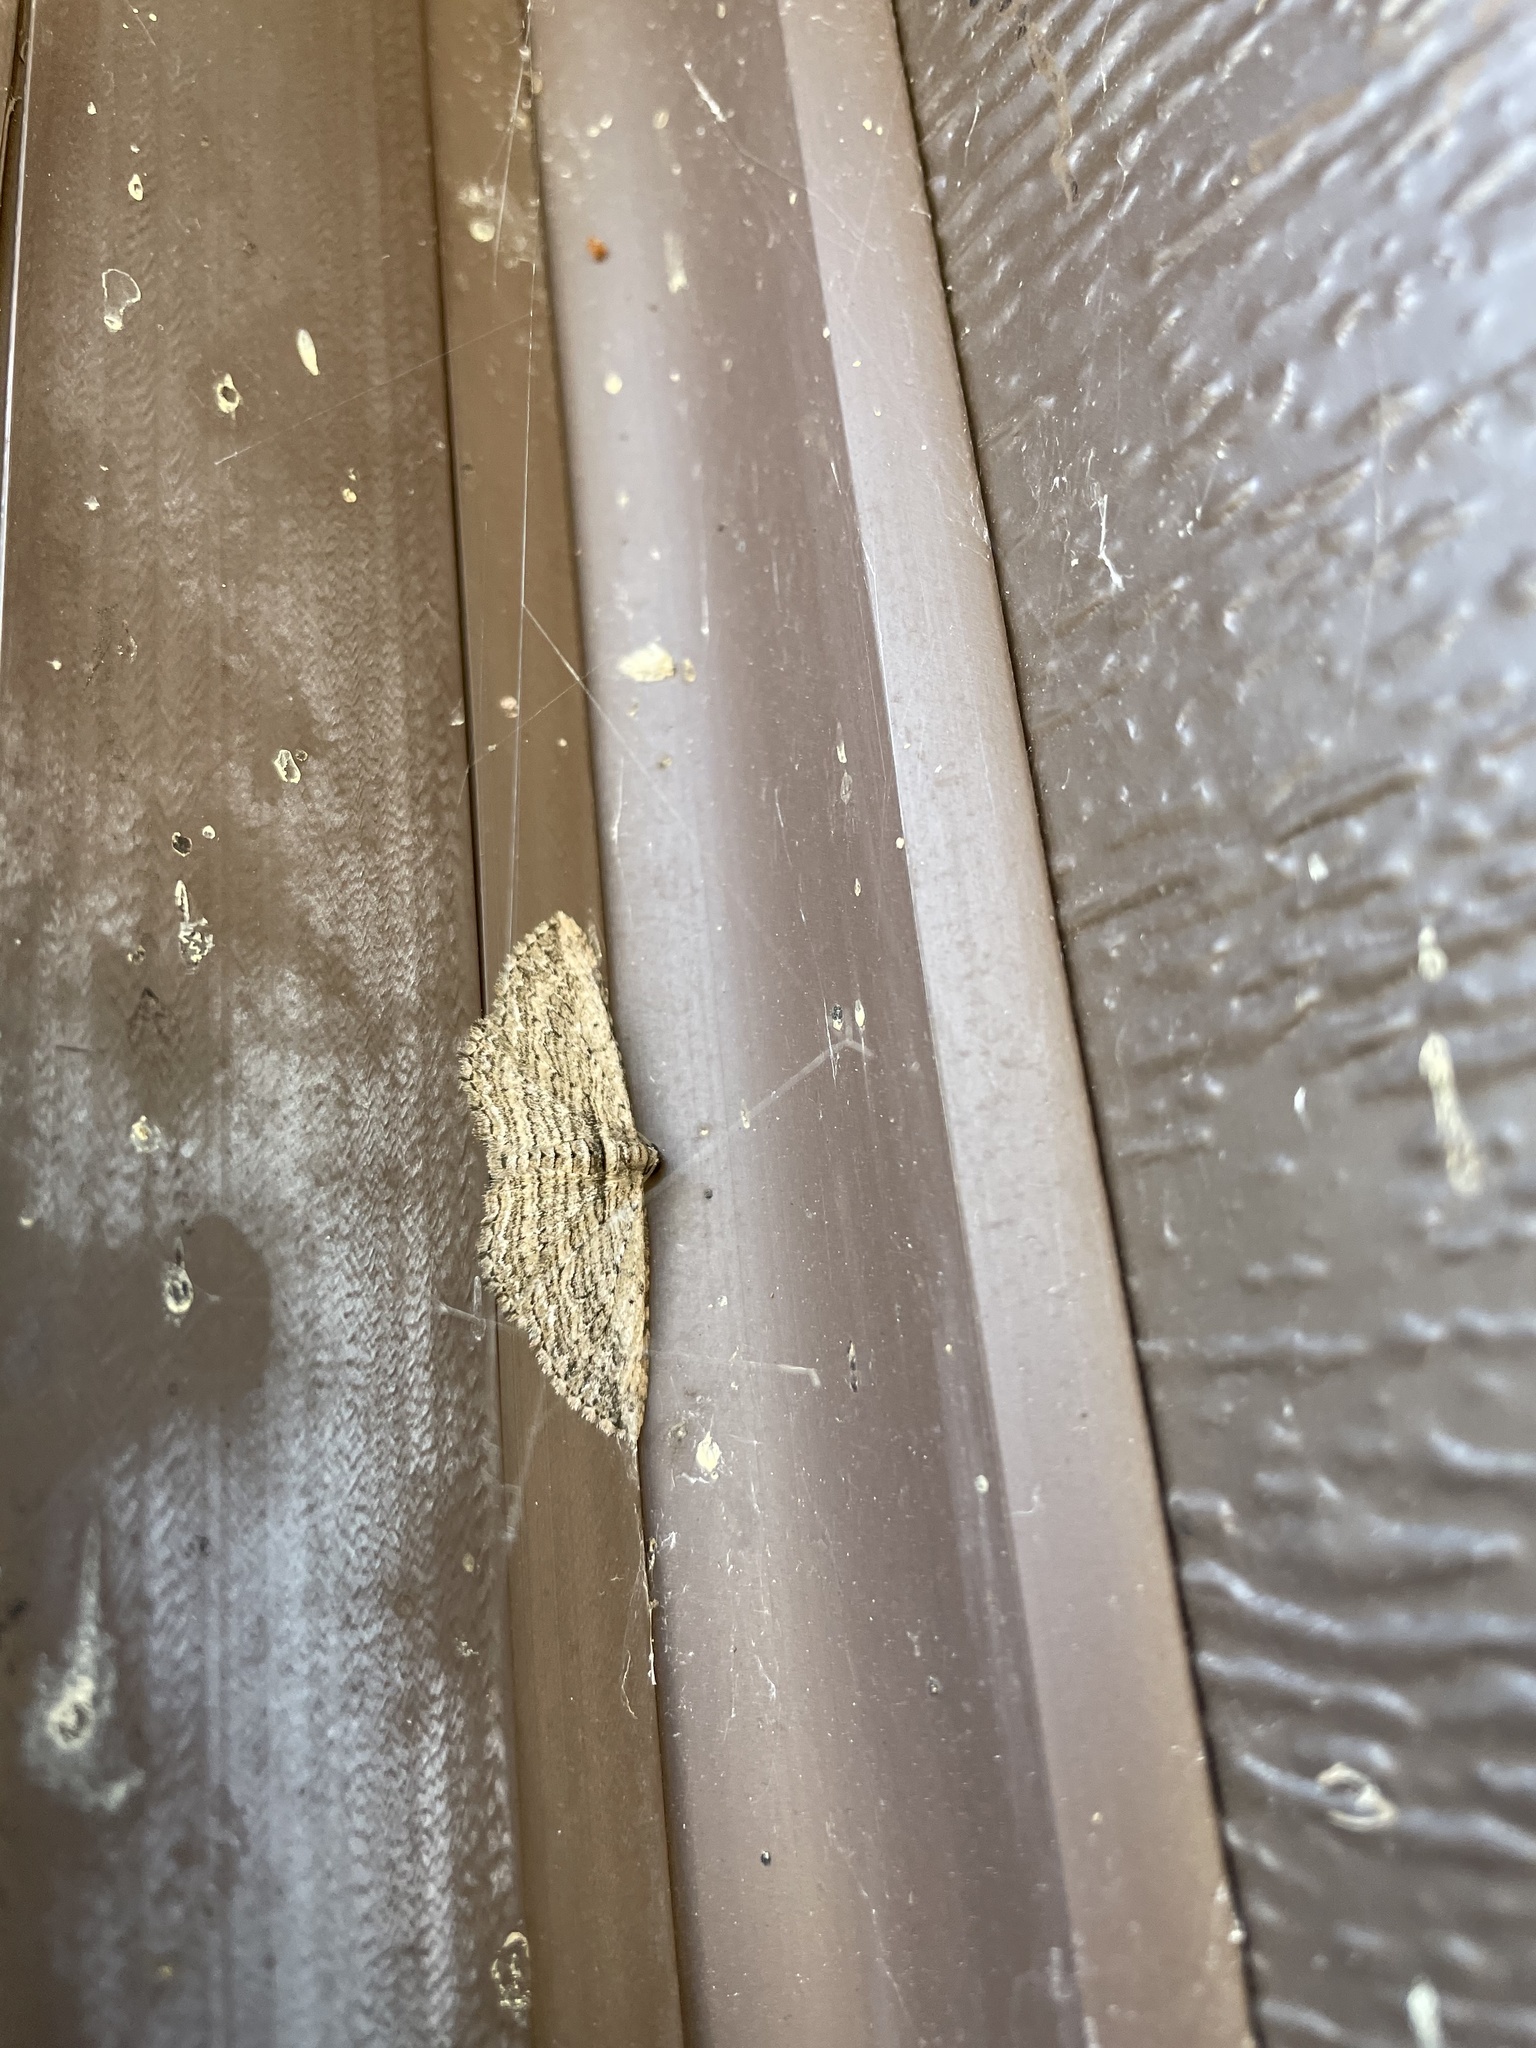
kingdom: Animalia
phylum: Arthropoda
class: Insecta
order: Lepidoptera
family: Geometridae
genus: Horisme
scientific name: Horisme intestinata
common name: Brown bark carpet
